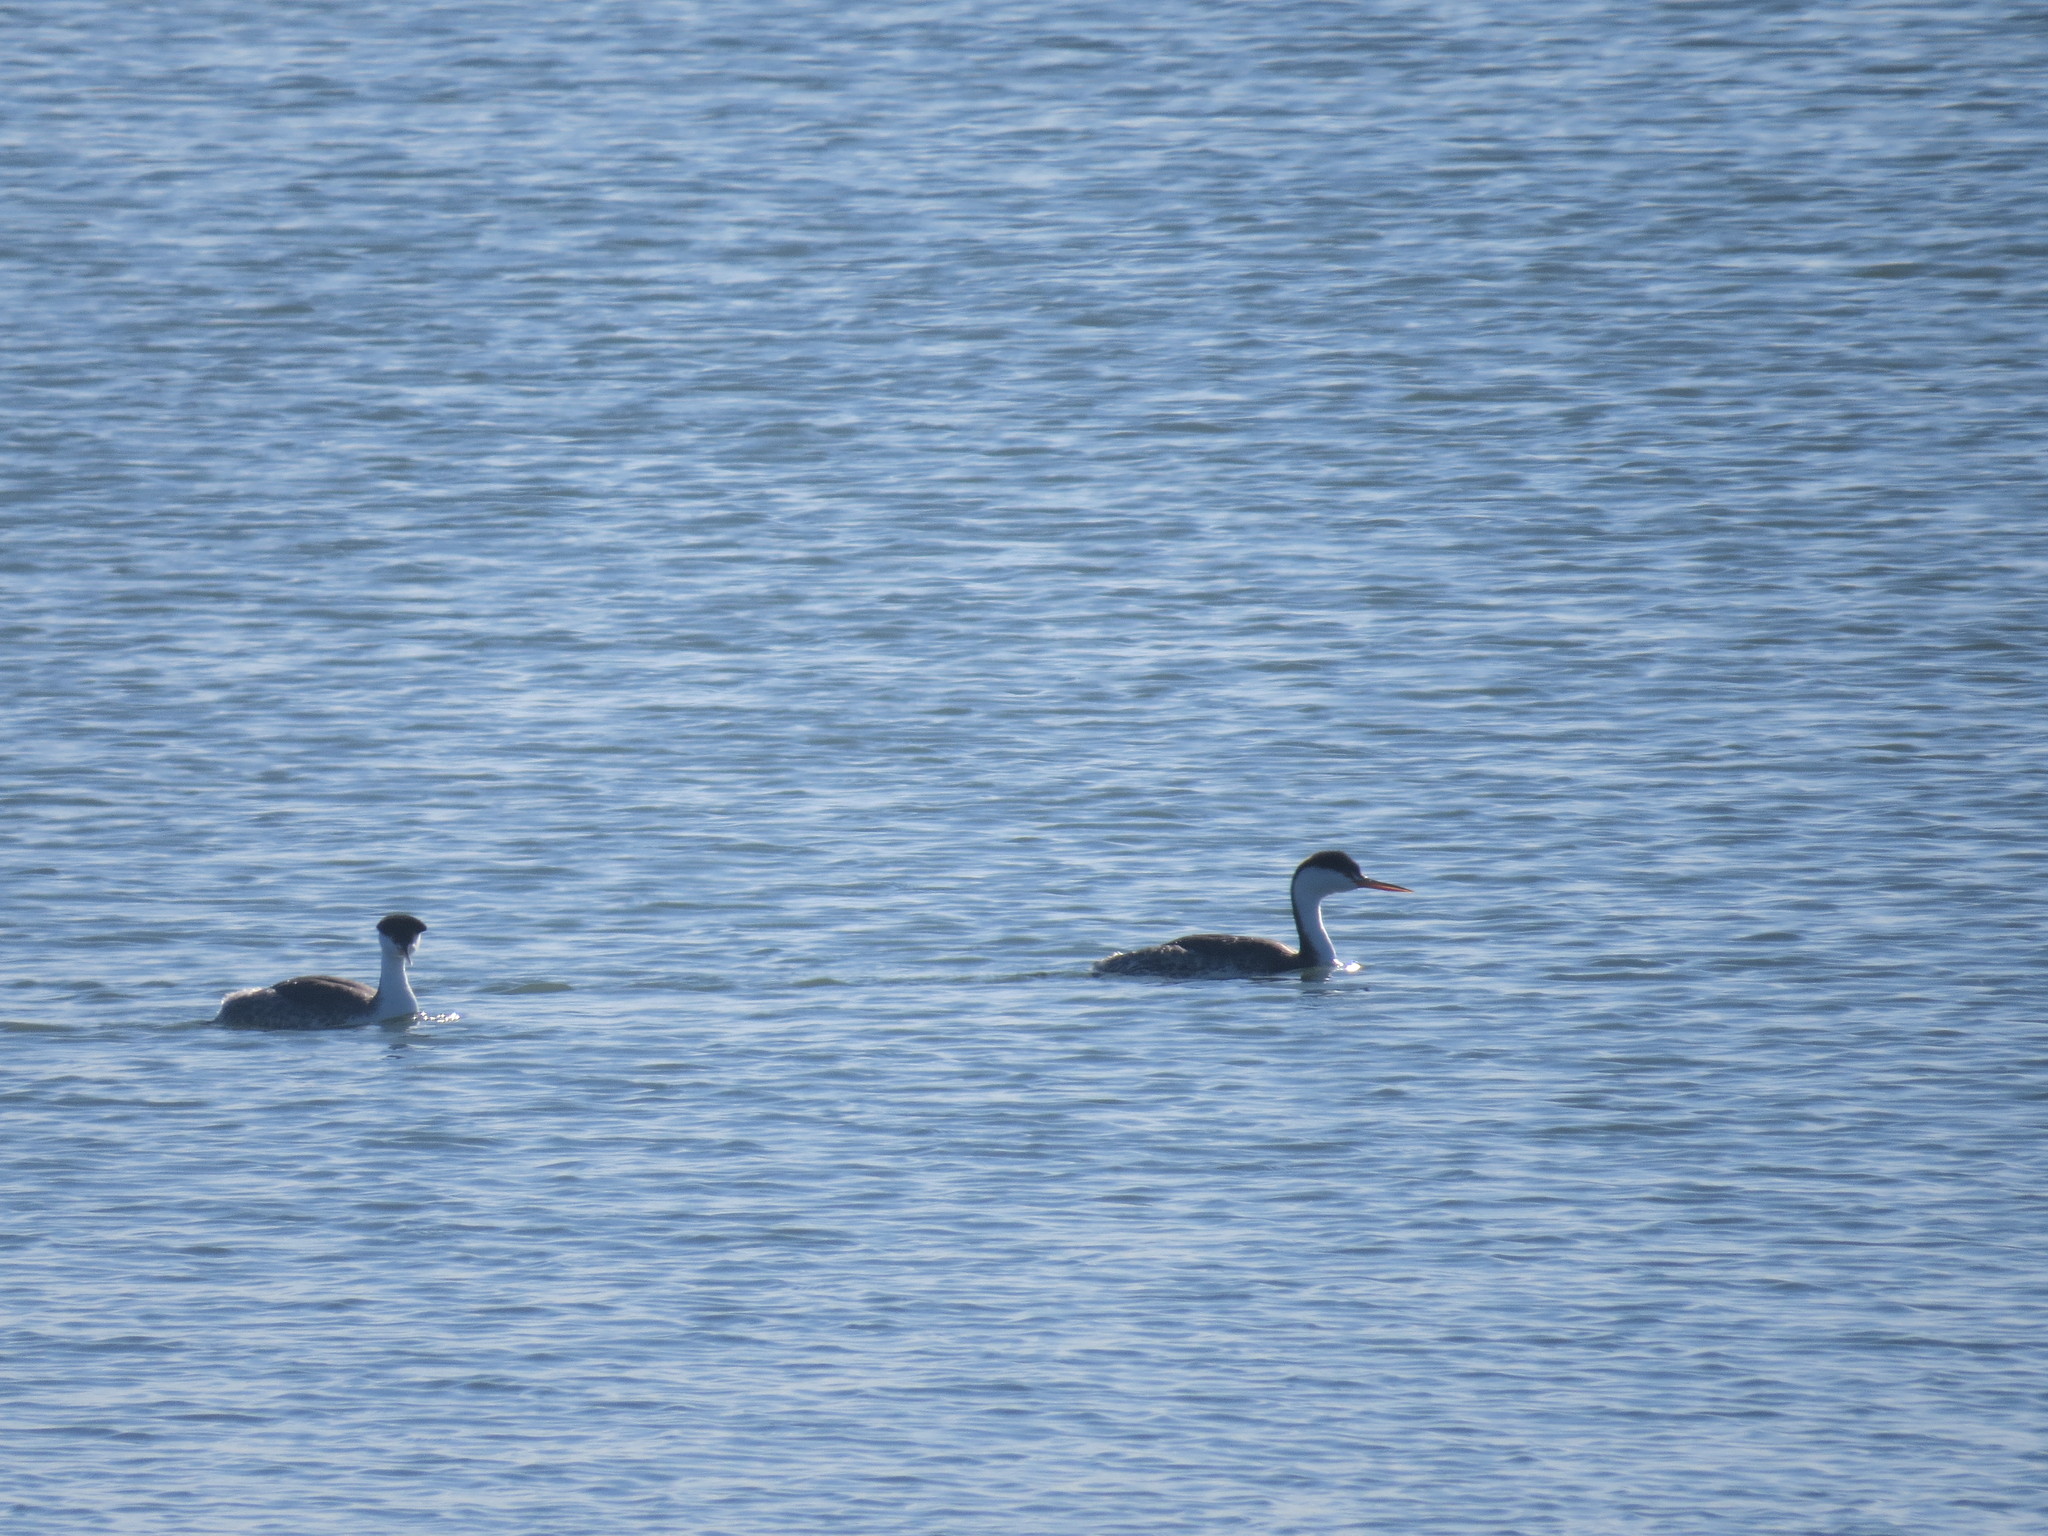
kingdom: Animalia
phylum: Chordata
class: Aves
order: Podicipediformes
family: Podicipedidae
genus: Aechmophorus
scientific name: Aechmophorus clarkii
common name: Clark's grebe
